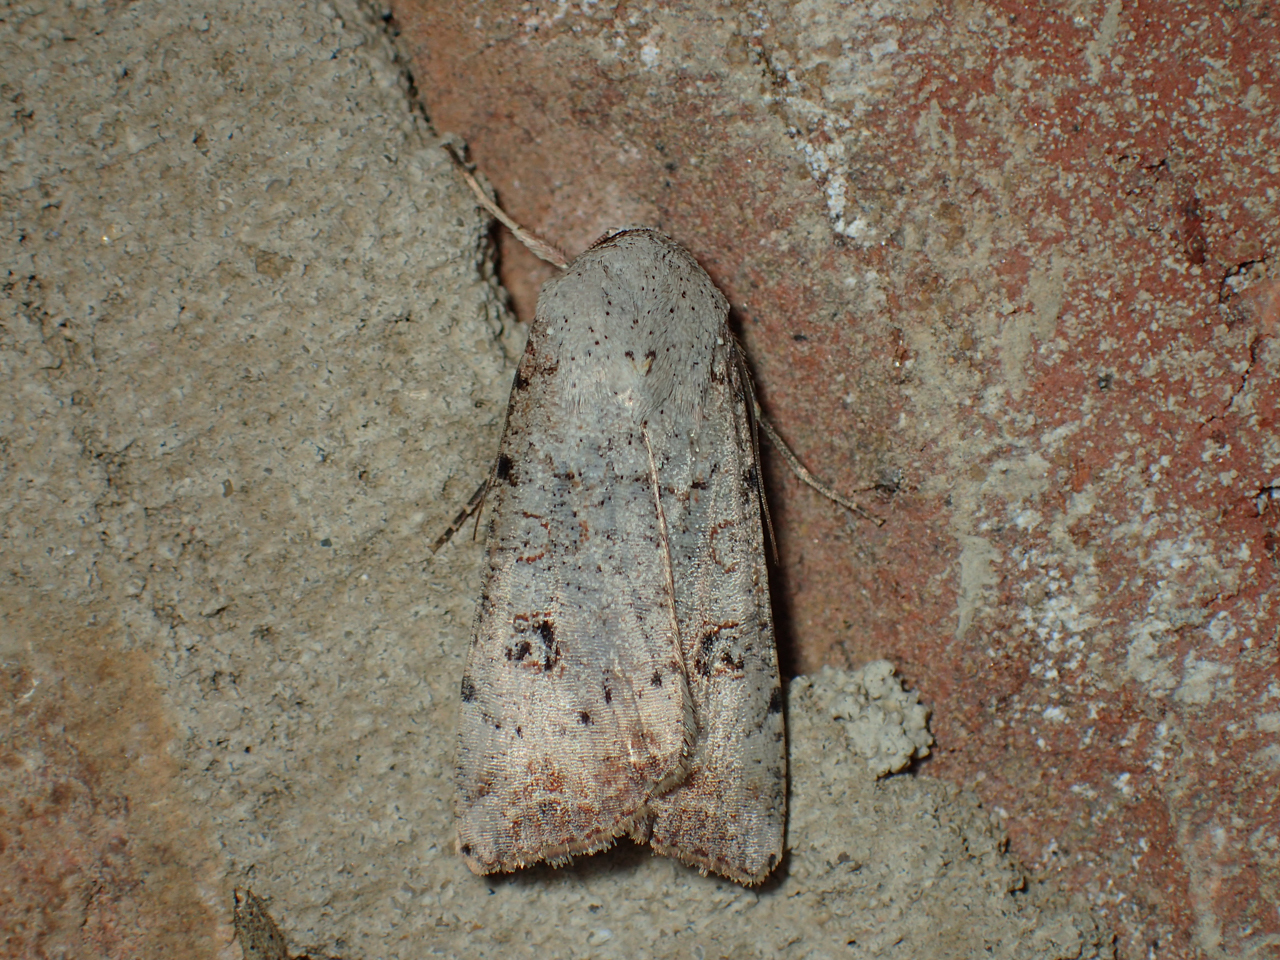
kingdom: Animalia
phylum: Arthropoda
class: Insecta
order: Lepidoptera
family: Noctuidae
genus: Anicla
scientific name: Anicla infecta
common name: Green cutworm
